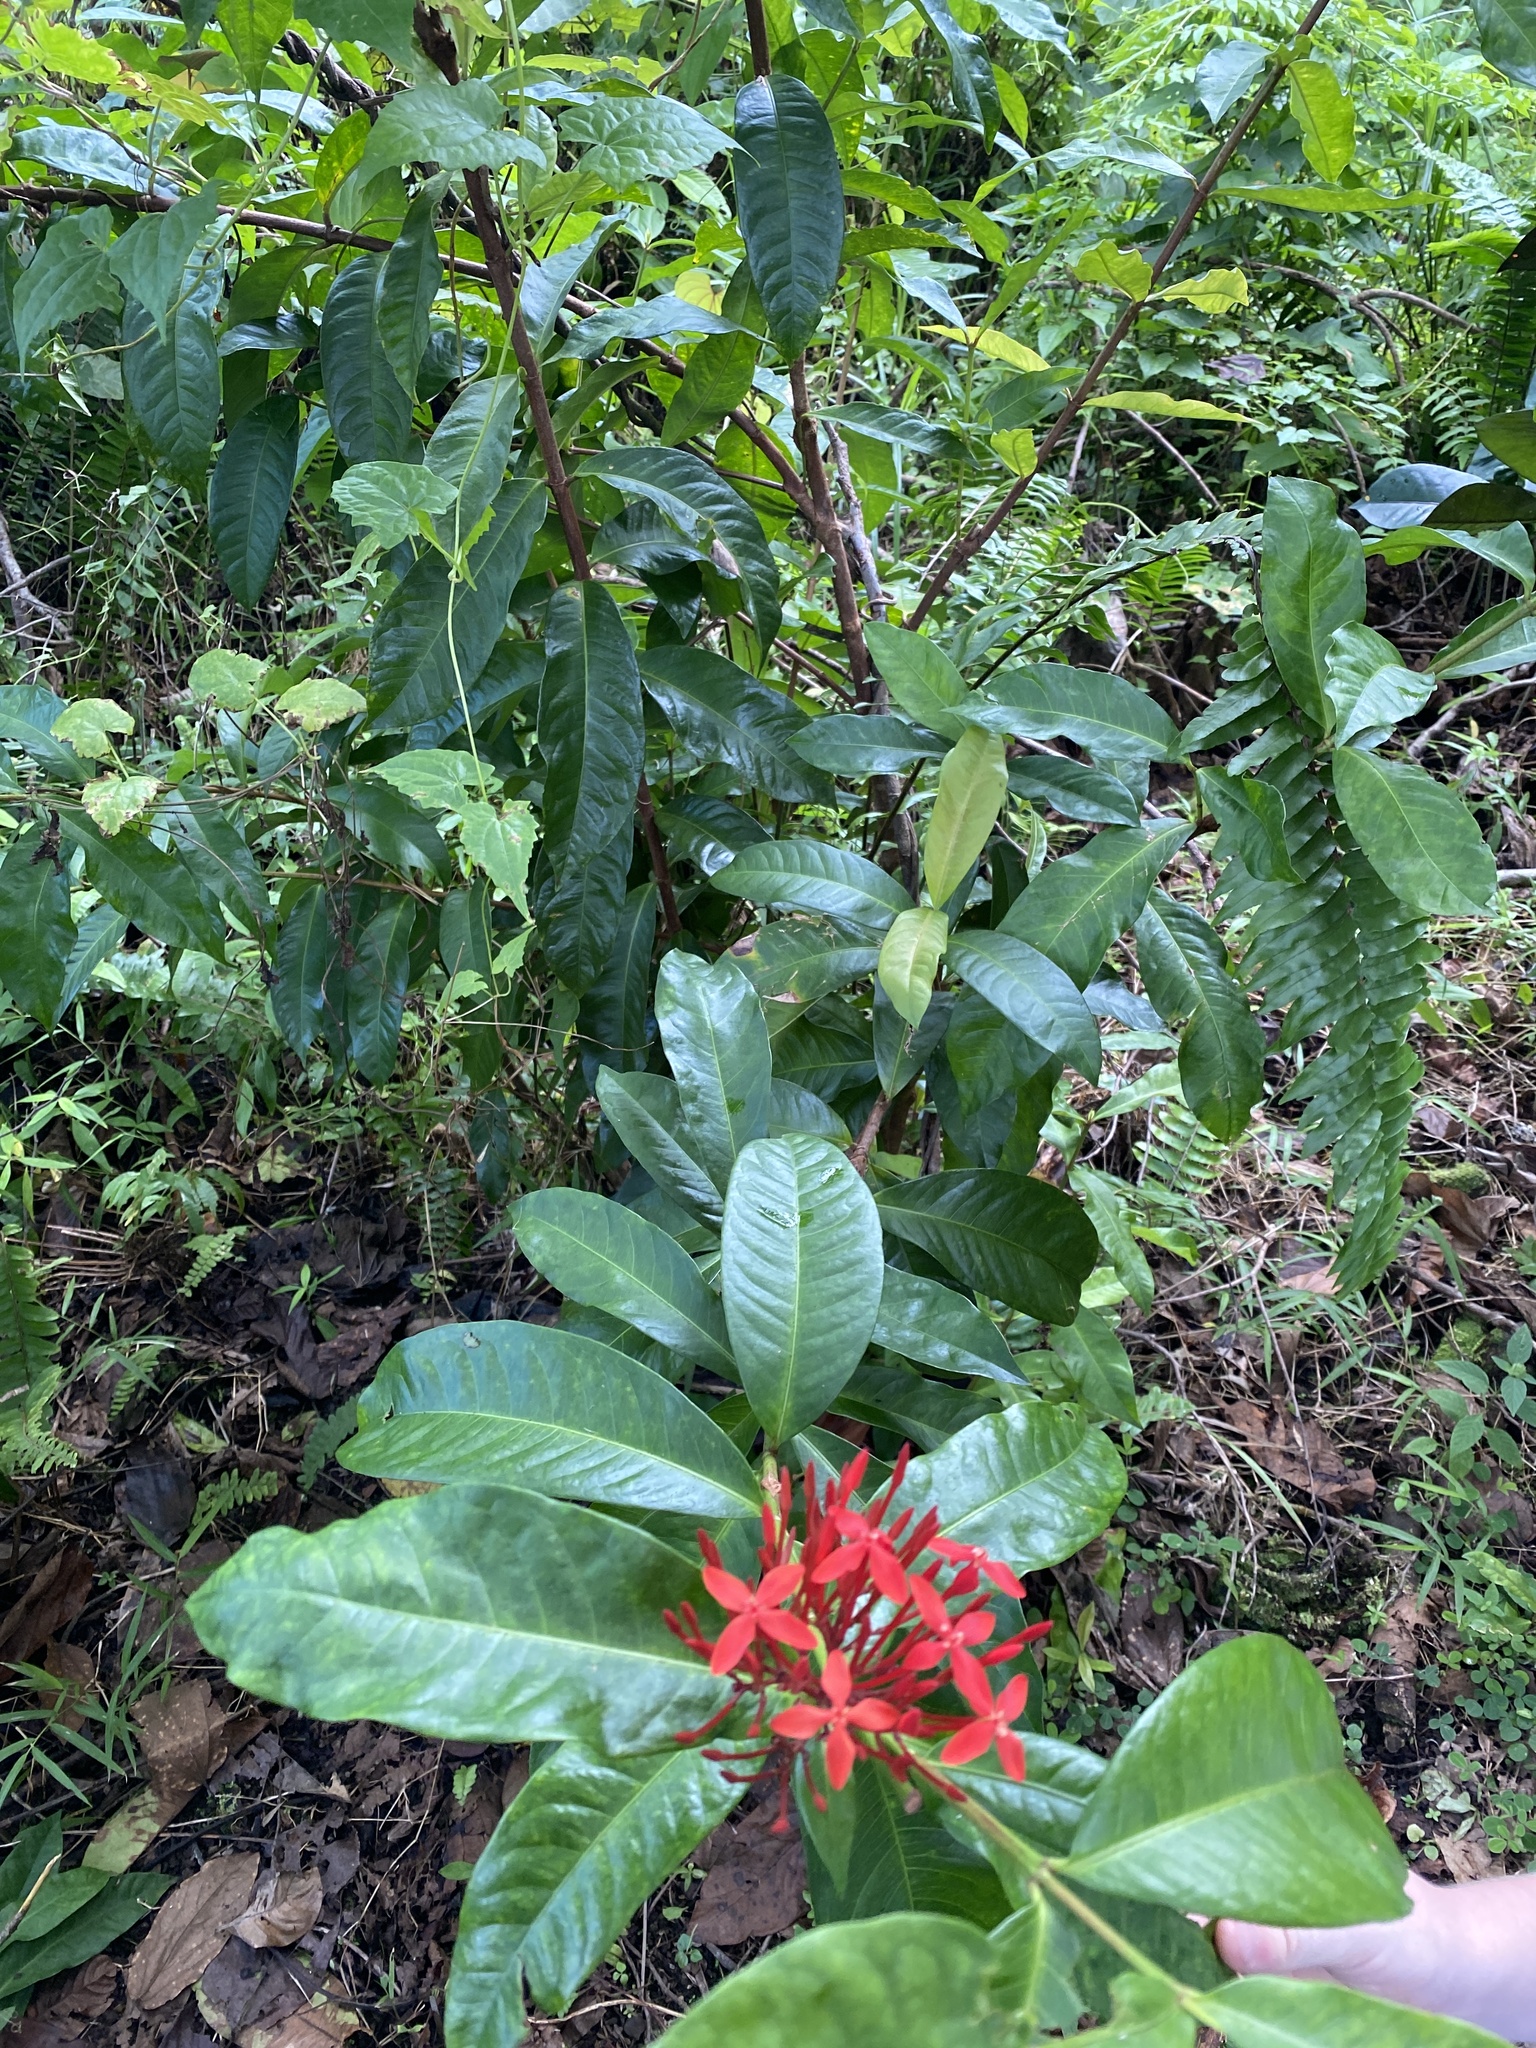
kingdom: Plantae
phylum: Tracheophyta
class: Magnoliopsida
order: Gentianales
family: Rubiaceae
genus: Ixora
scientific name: Ixora coccinea
